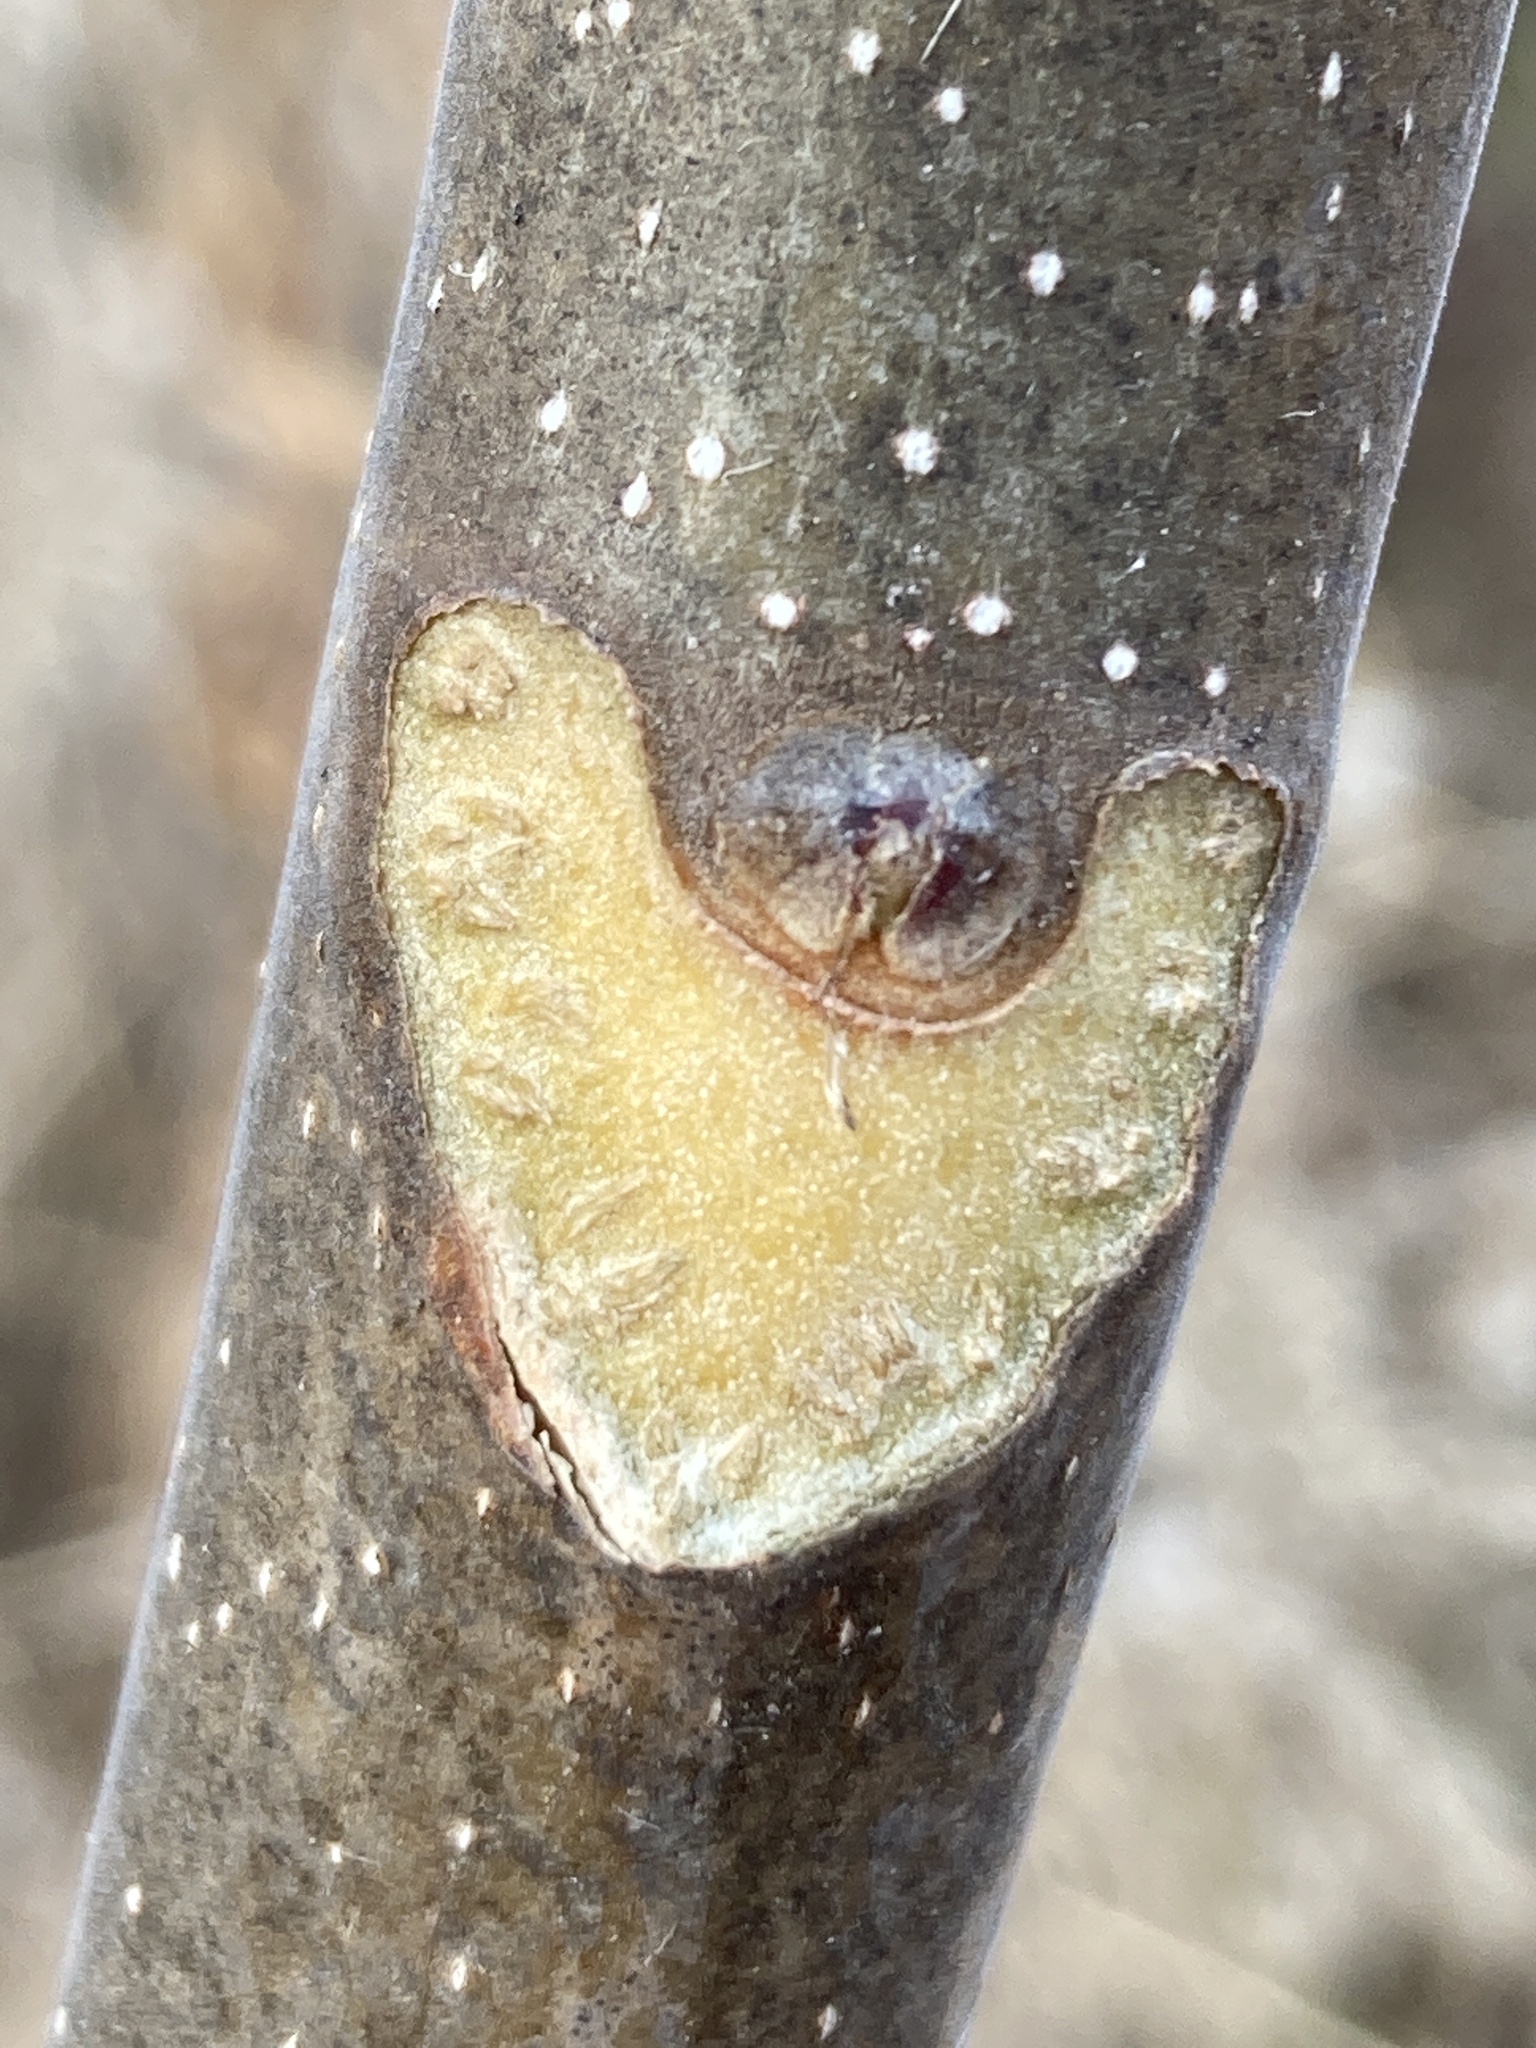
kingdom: Plantae
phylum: Tracheophyta
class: Magnoliopsida
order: Sapindales
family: Simaroubaceae
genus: Ailanthus
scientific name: Ailanthus altissima
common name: Tree-of-heaven
